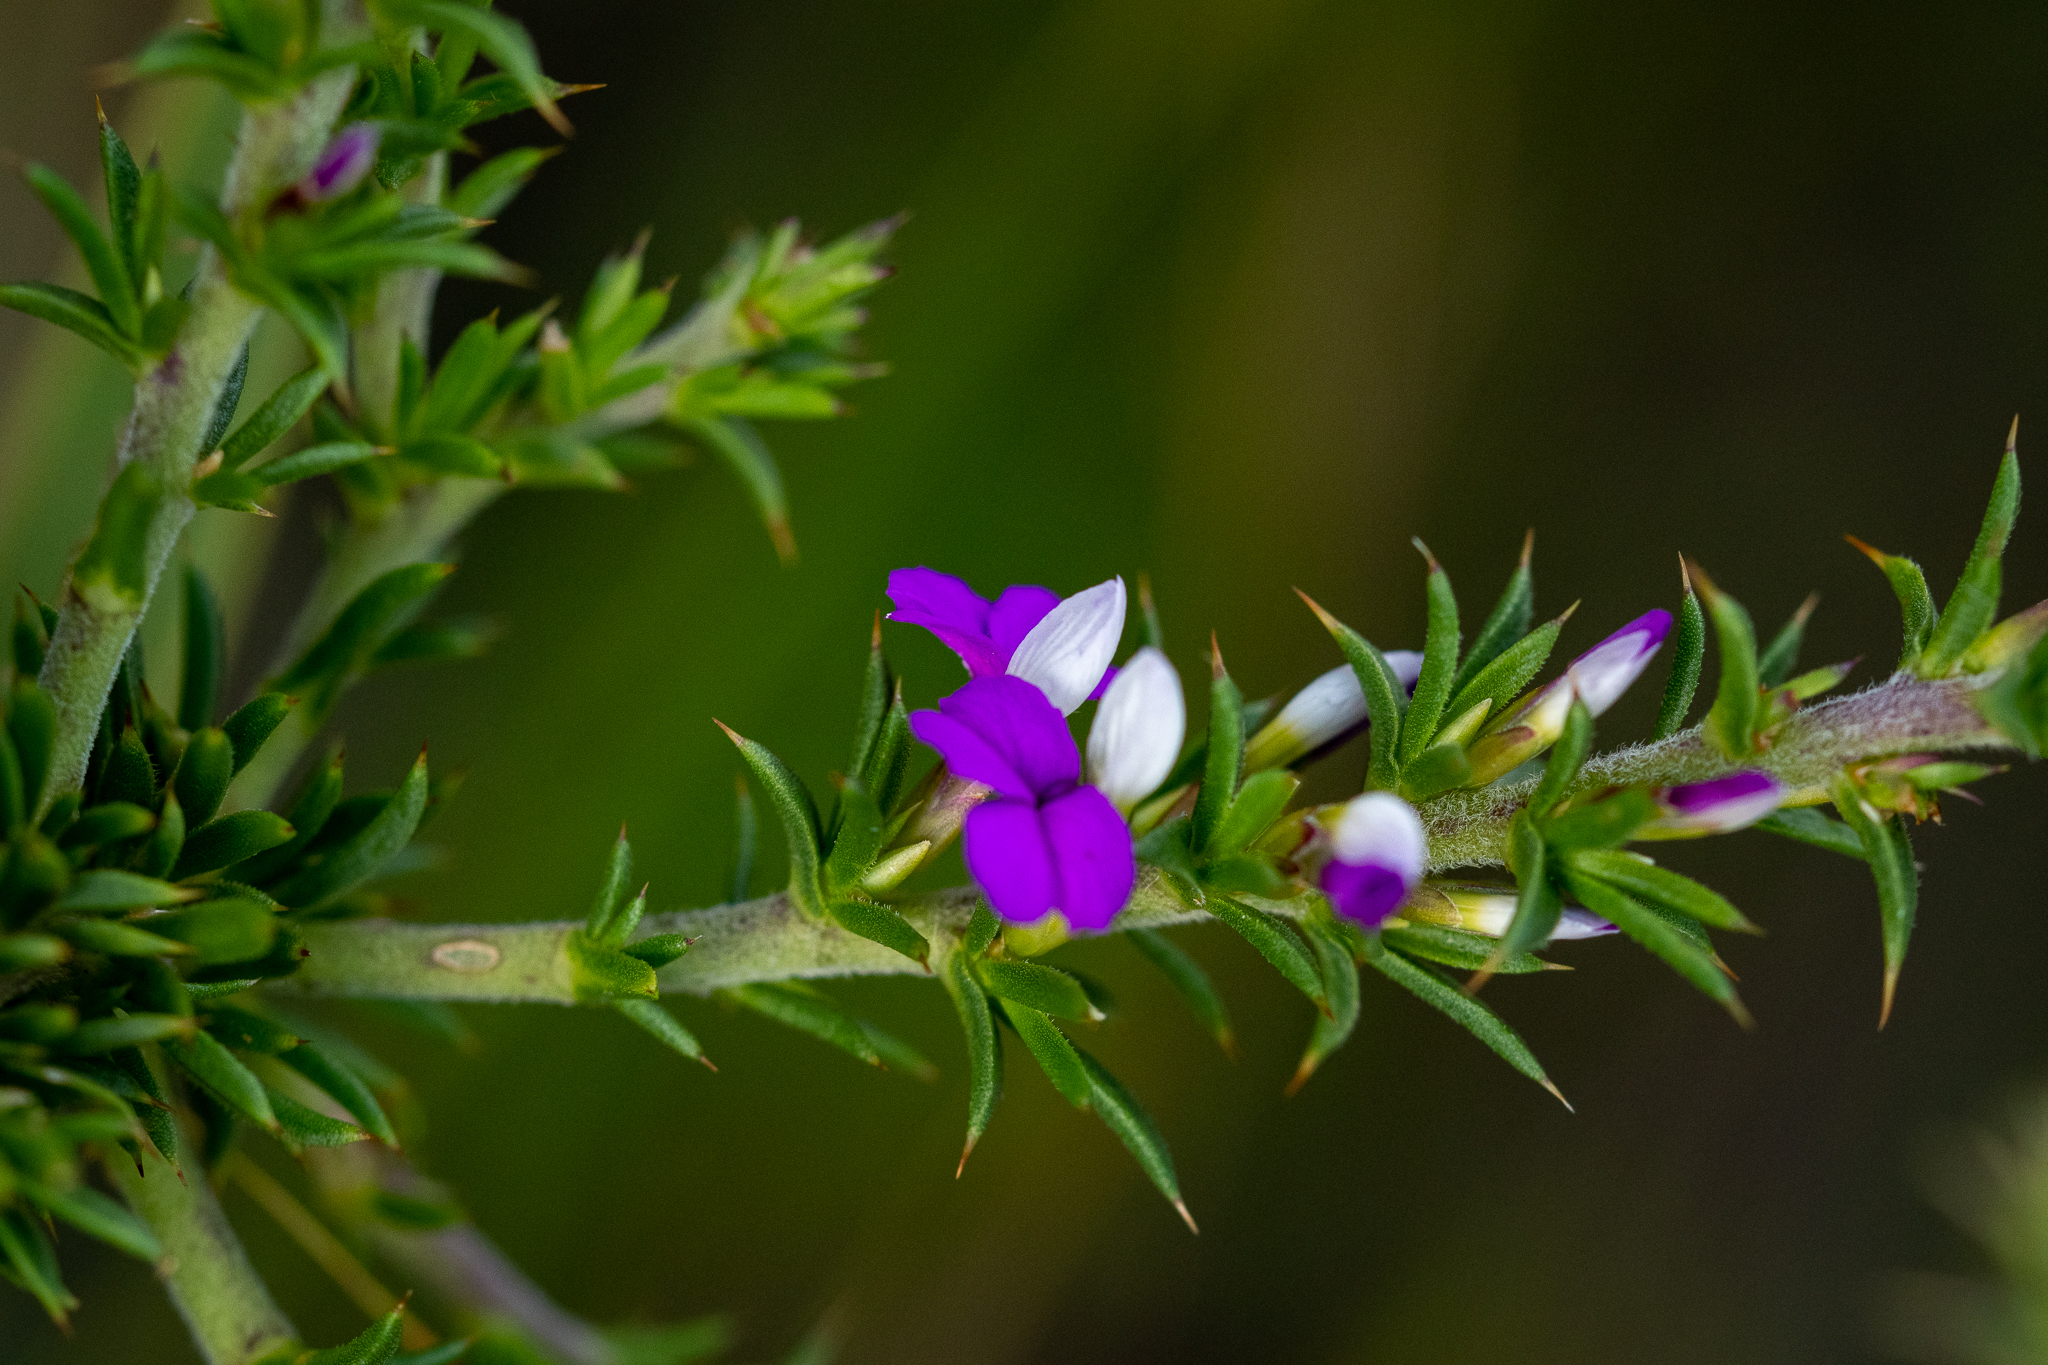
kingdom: Plantae
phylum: Tracheophyta
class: Magnoliopsida
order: Fabales
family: Polygalaceae
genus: Muraltia
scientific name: Muraltia heisteria
